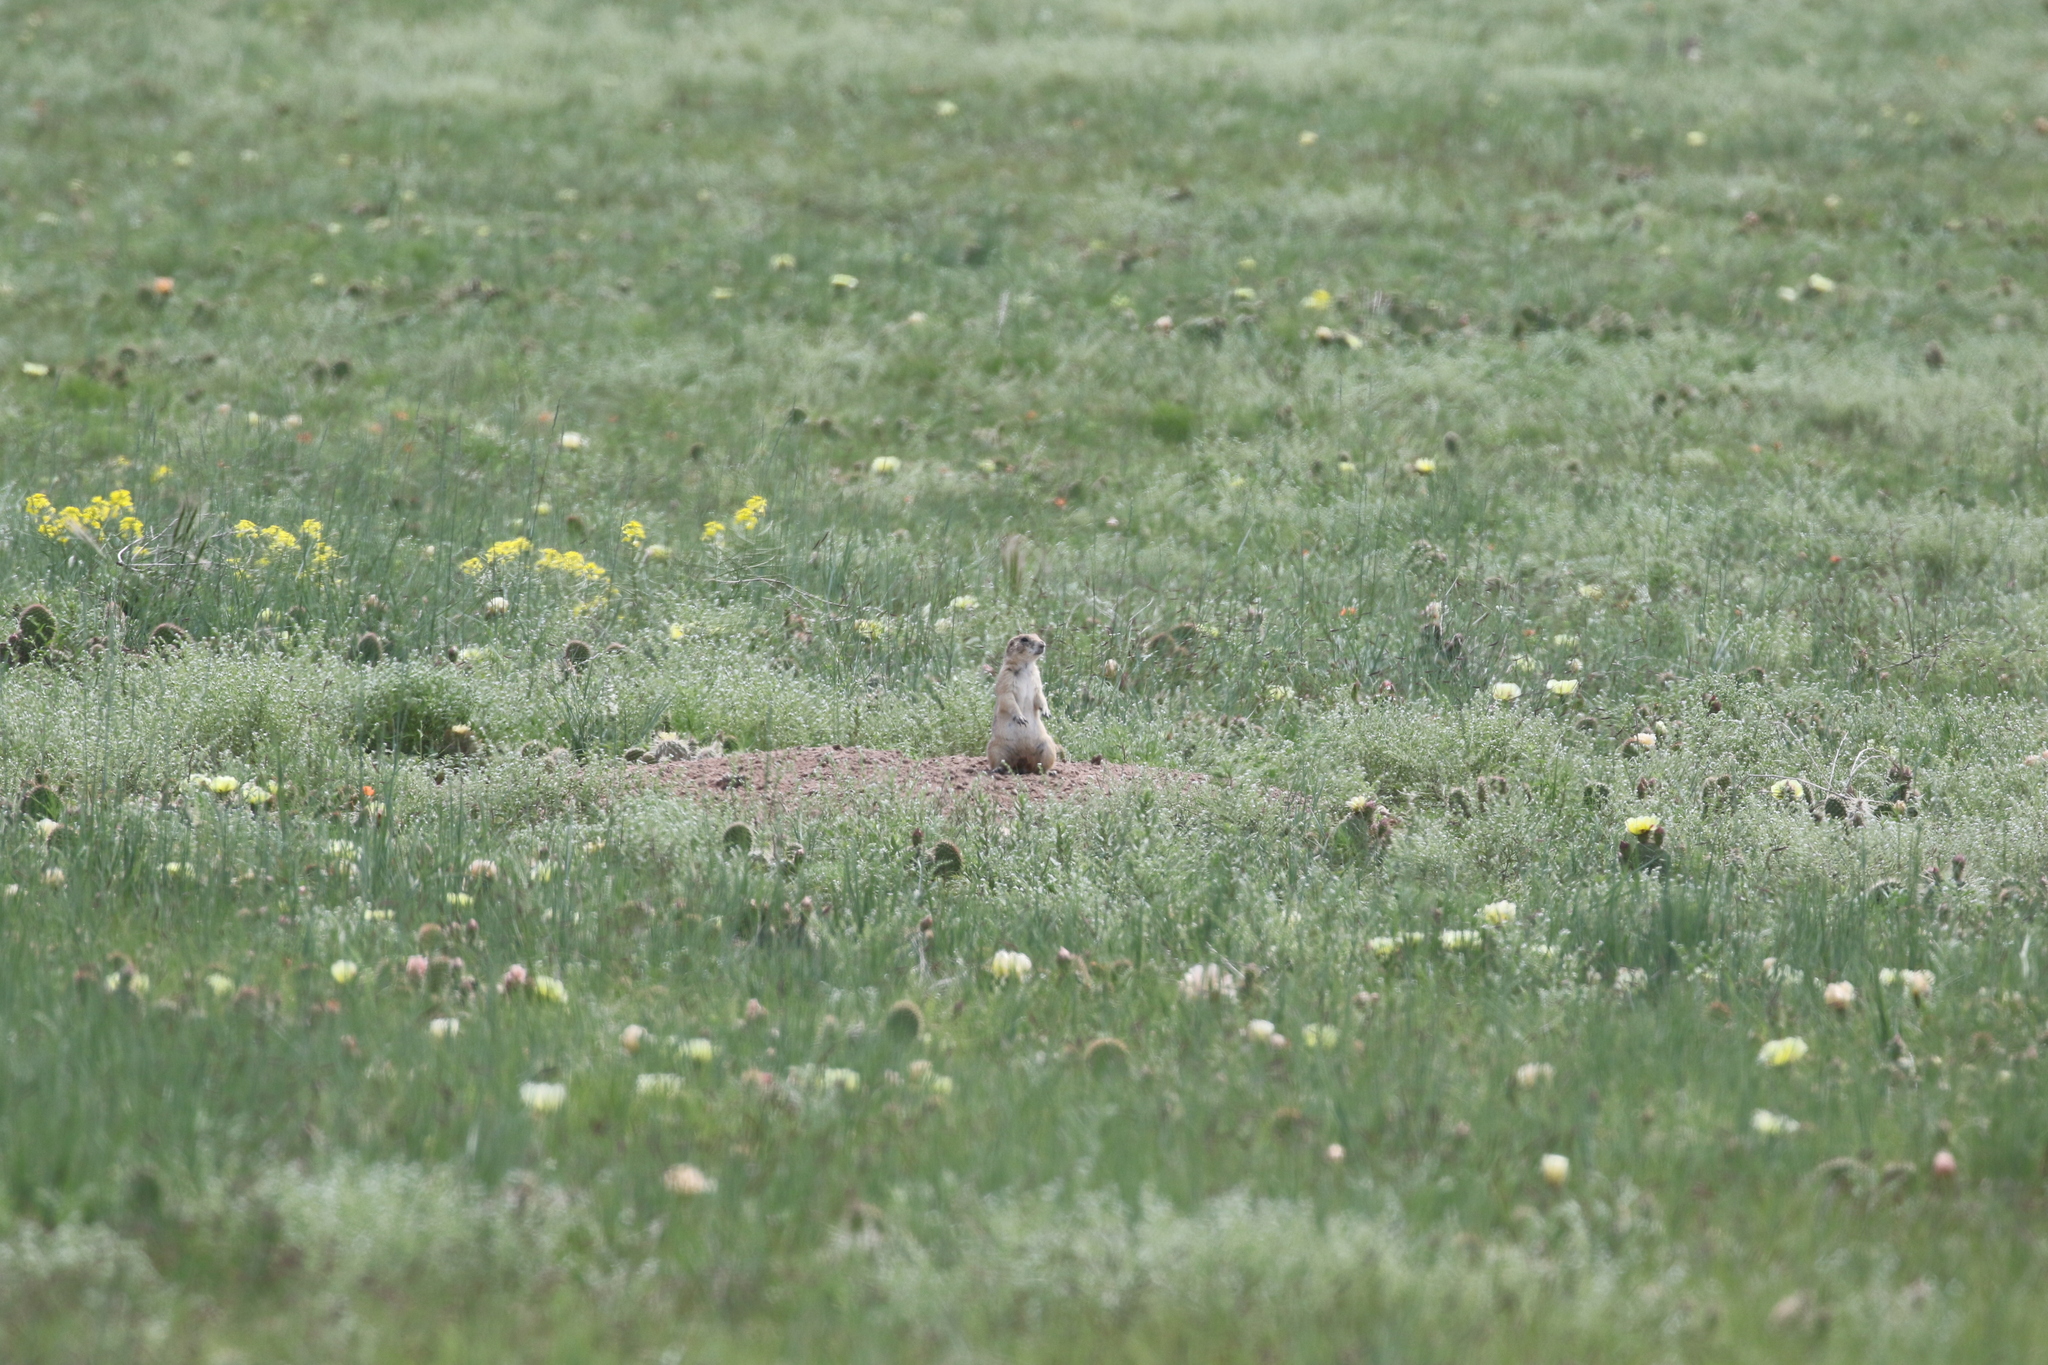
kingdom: Animalia
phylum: Chordata
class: Mammalia
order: Rodentia
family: Sciuridae
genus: Cynomys
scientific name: Cynomys ludovicianus
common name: Black-tailed prairie dog
